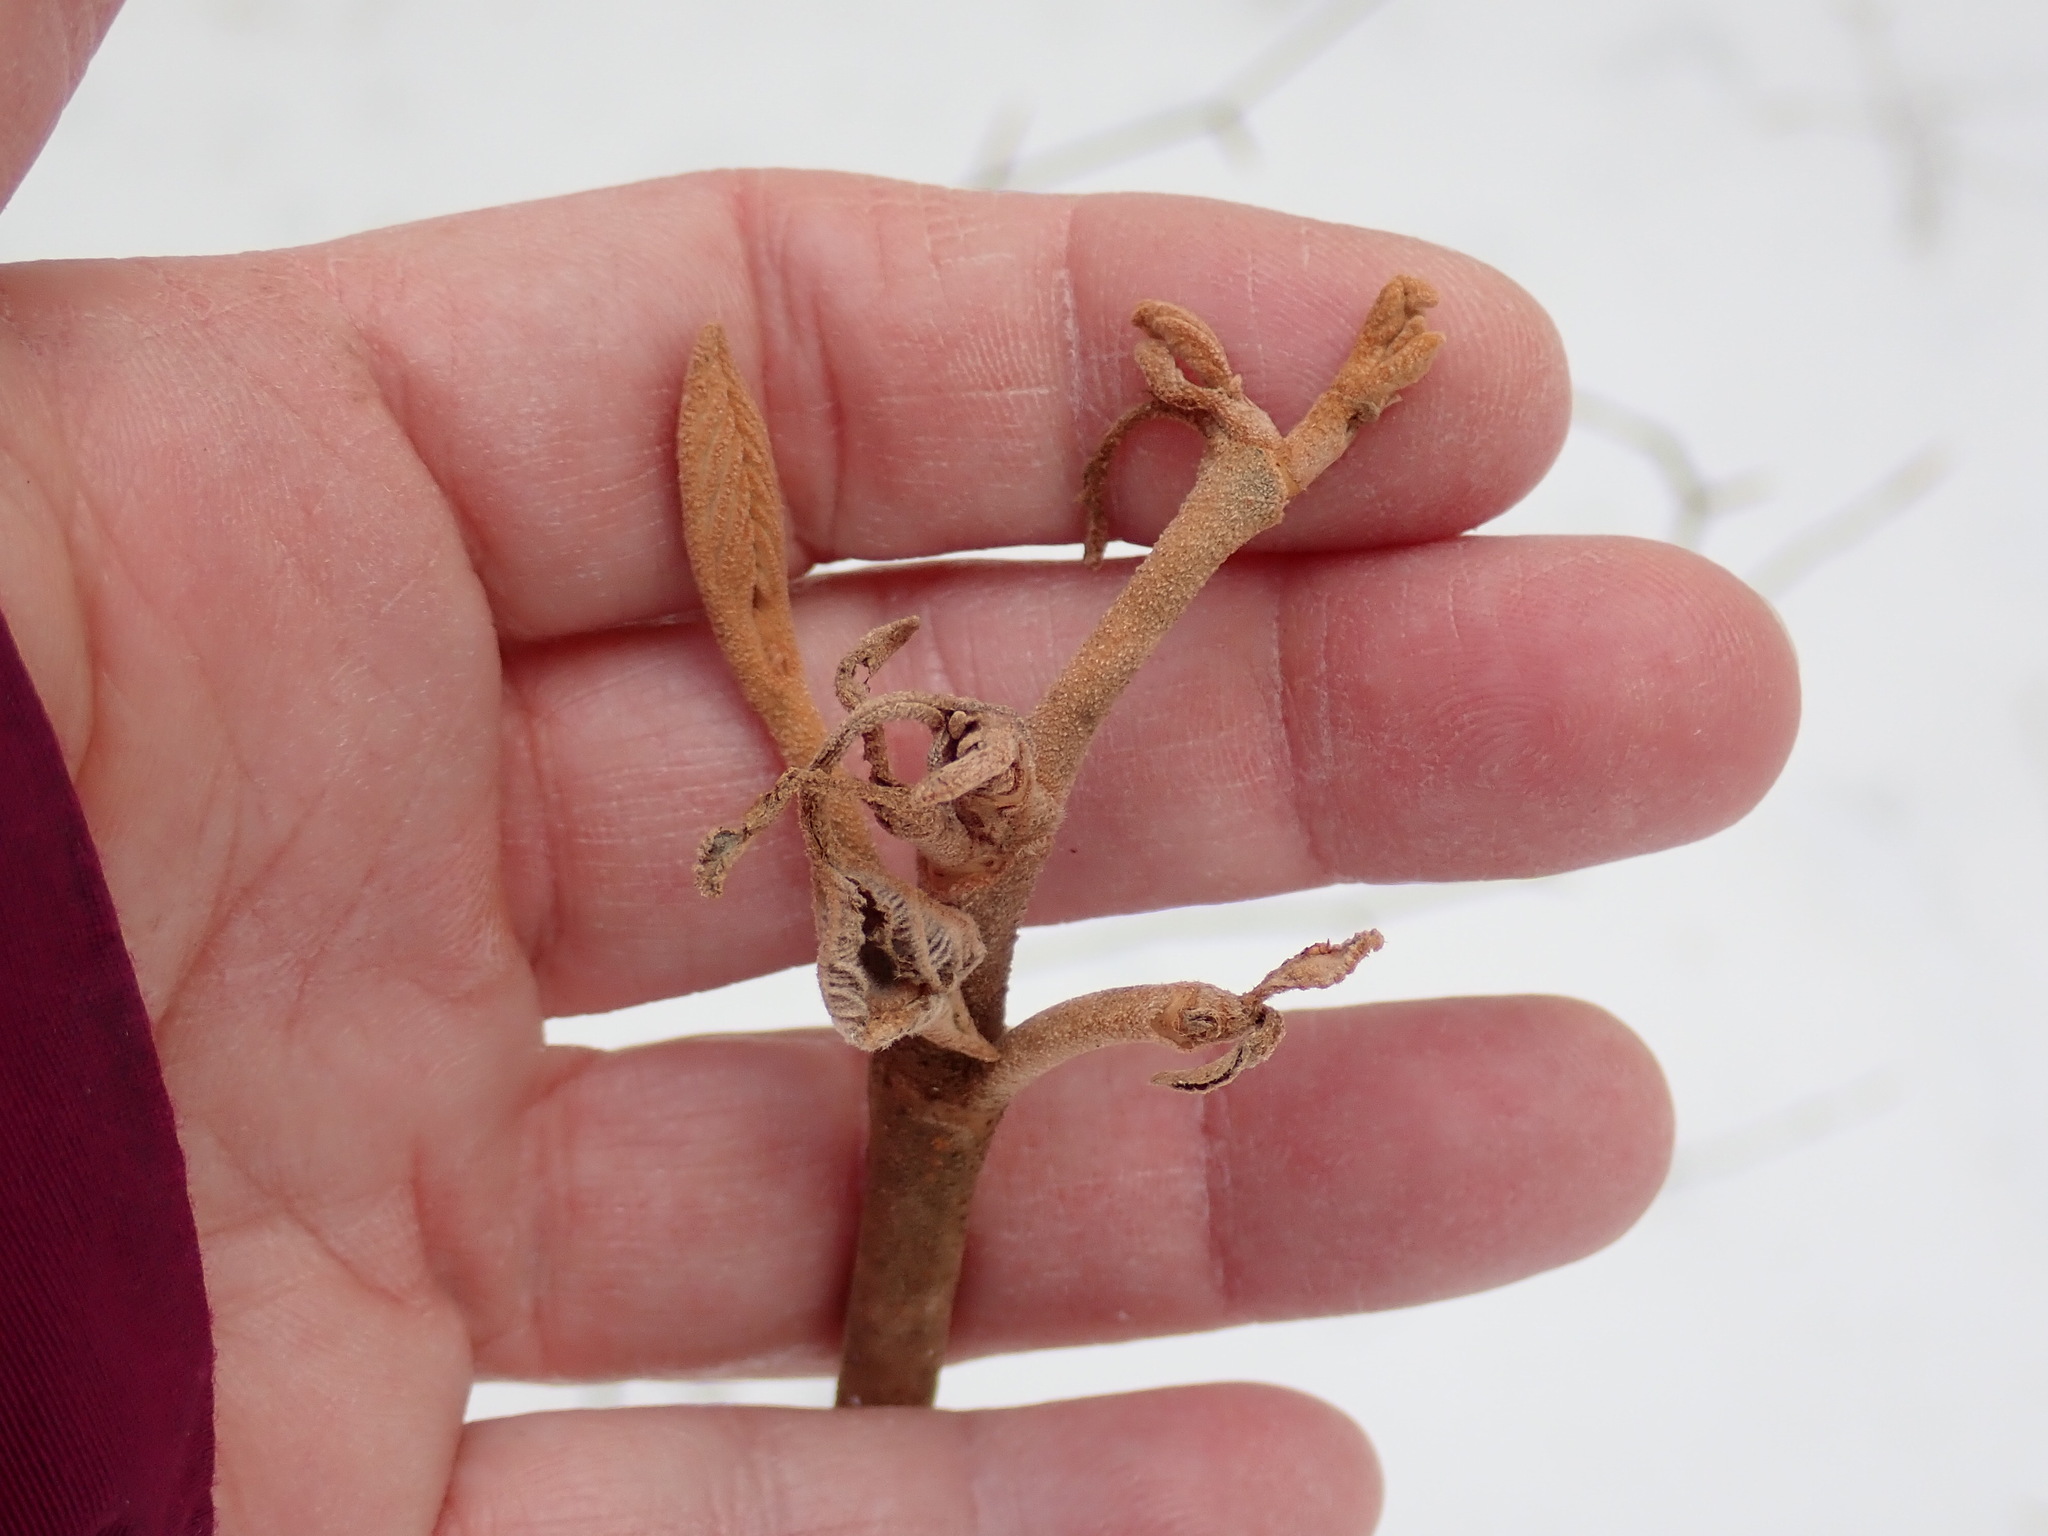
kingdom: Plantae
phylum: Tracheophyta
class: Magnoliopsida
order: Dipsacales
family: Viburnaceae
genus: Viburnum
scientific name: Viburnum lantanoides
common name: Hobblebush
